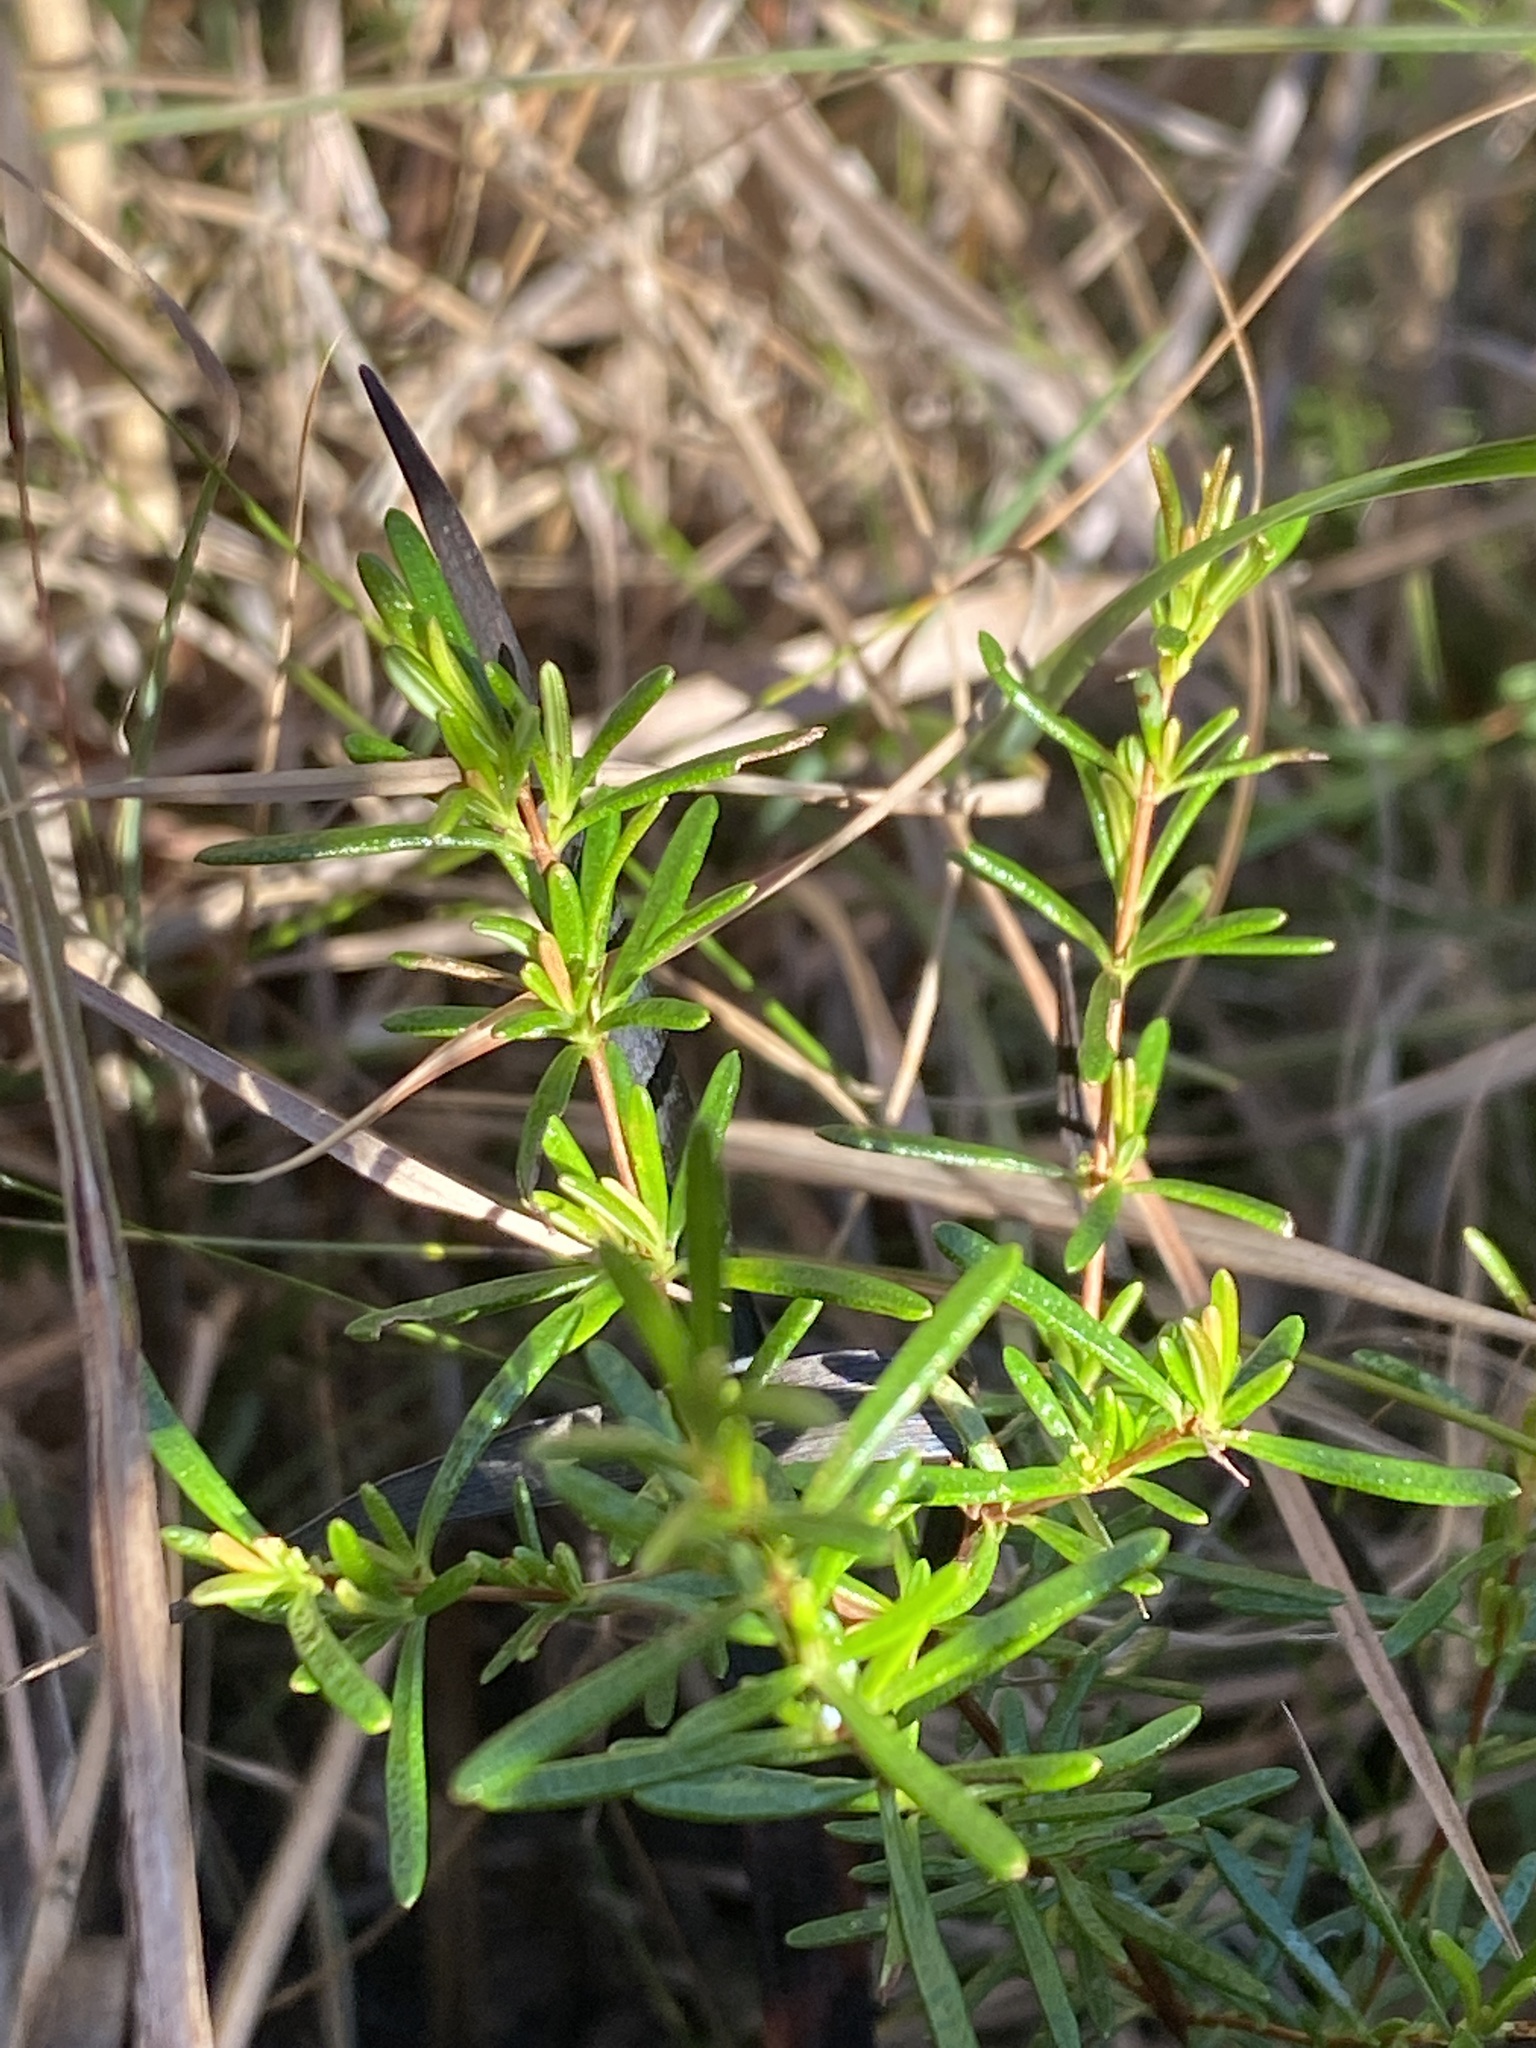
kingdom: Plantae
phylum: Tracheophyta
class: Magnoliopsida
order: Malpighiales
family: Hypericaceae
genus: Hypericum
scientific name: Hypericum brachyphyllum
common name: Coastal plain st. john's-wort
